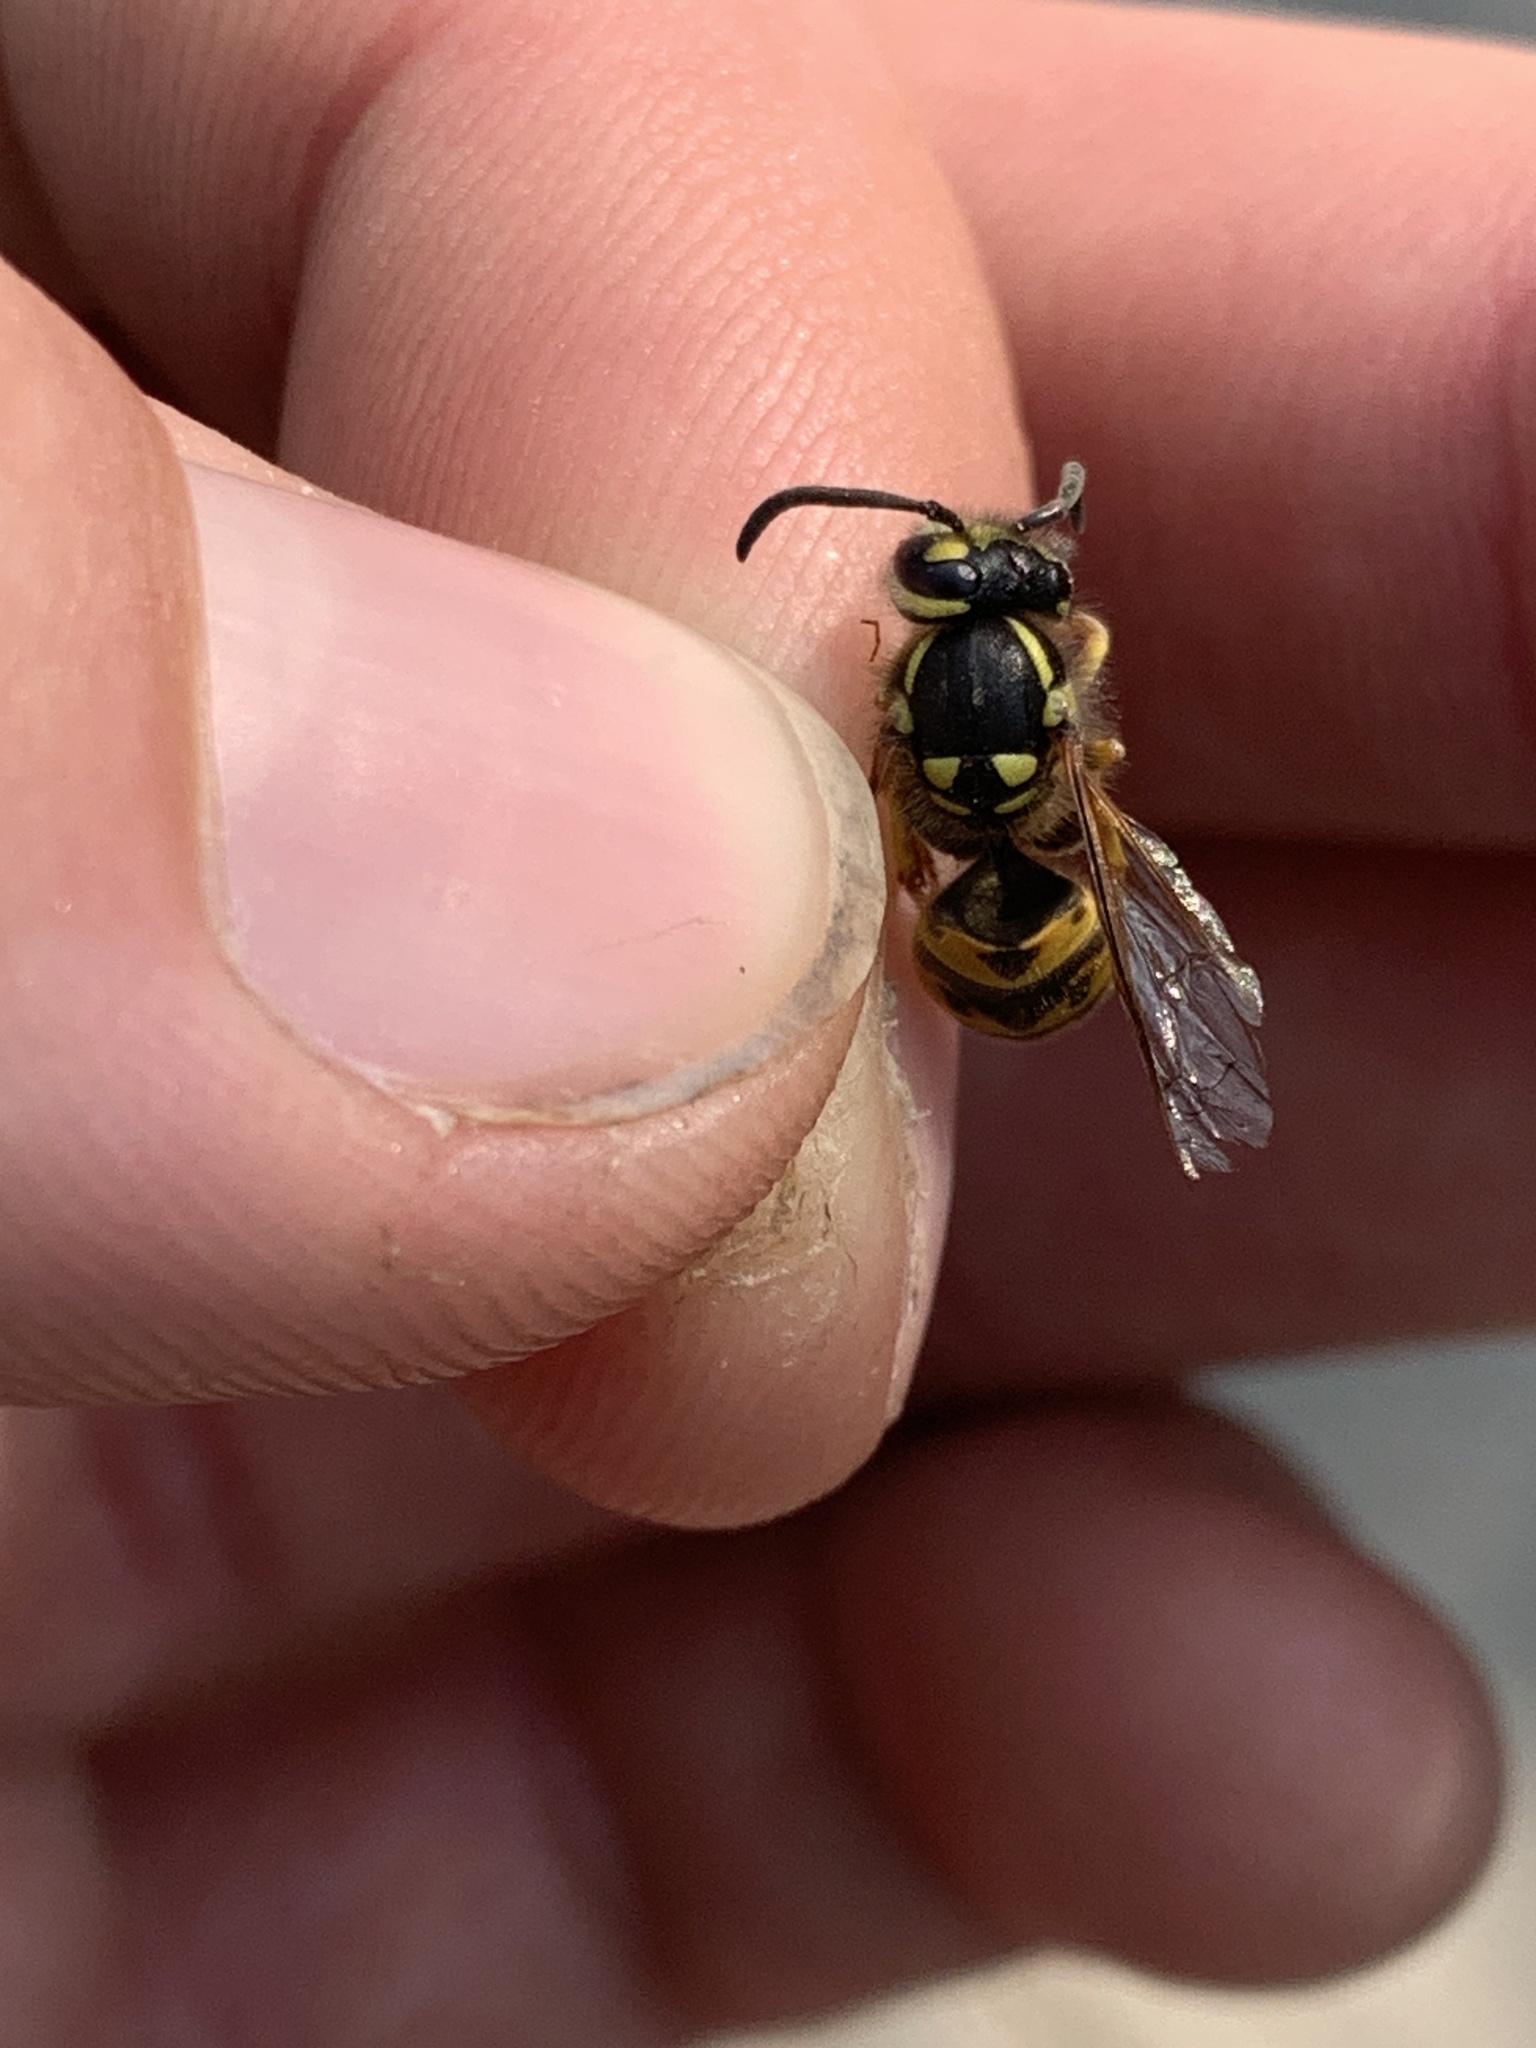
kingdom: Animalia
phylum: Arthropoda
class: Insecta
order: Hymenoptera
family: Vespidae
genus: Vespula
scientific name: Vespula germanica
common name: German wasp
